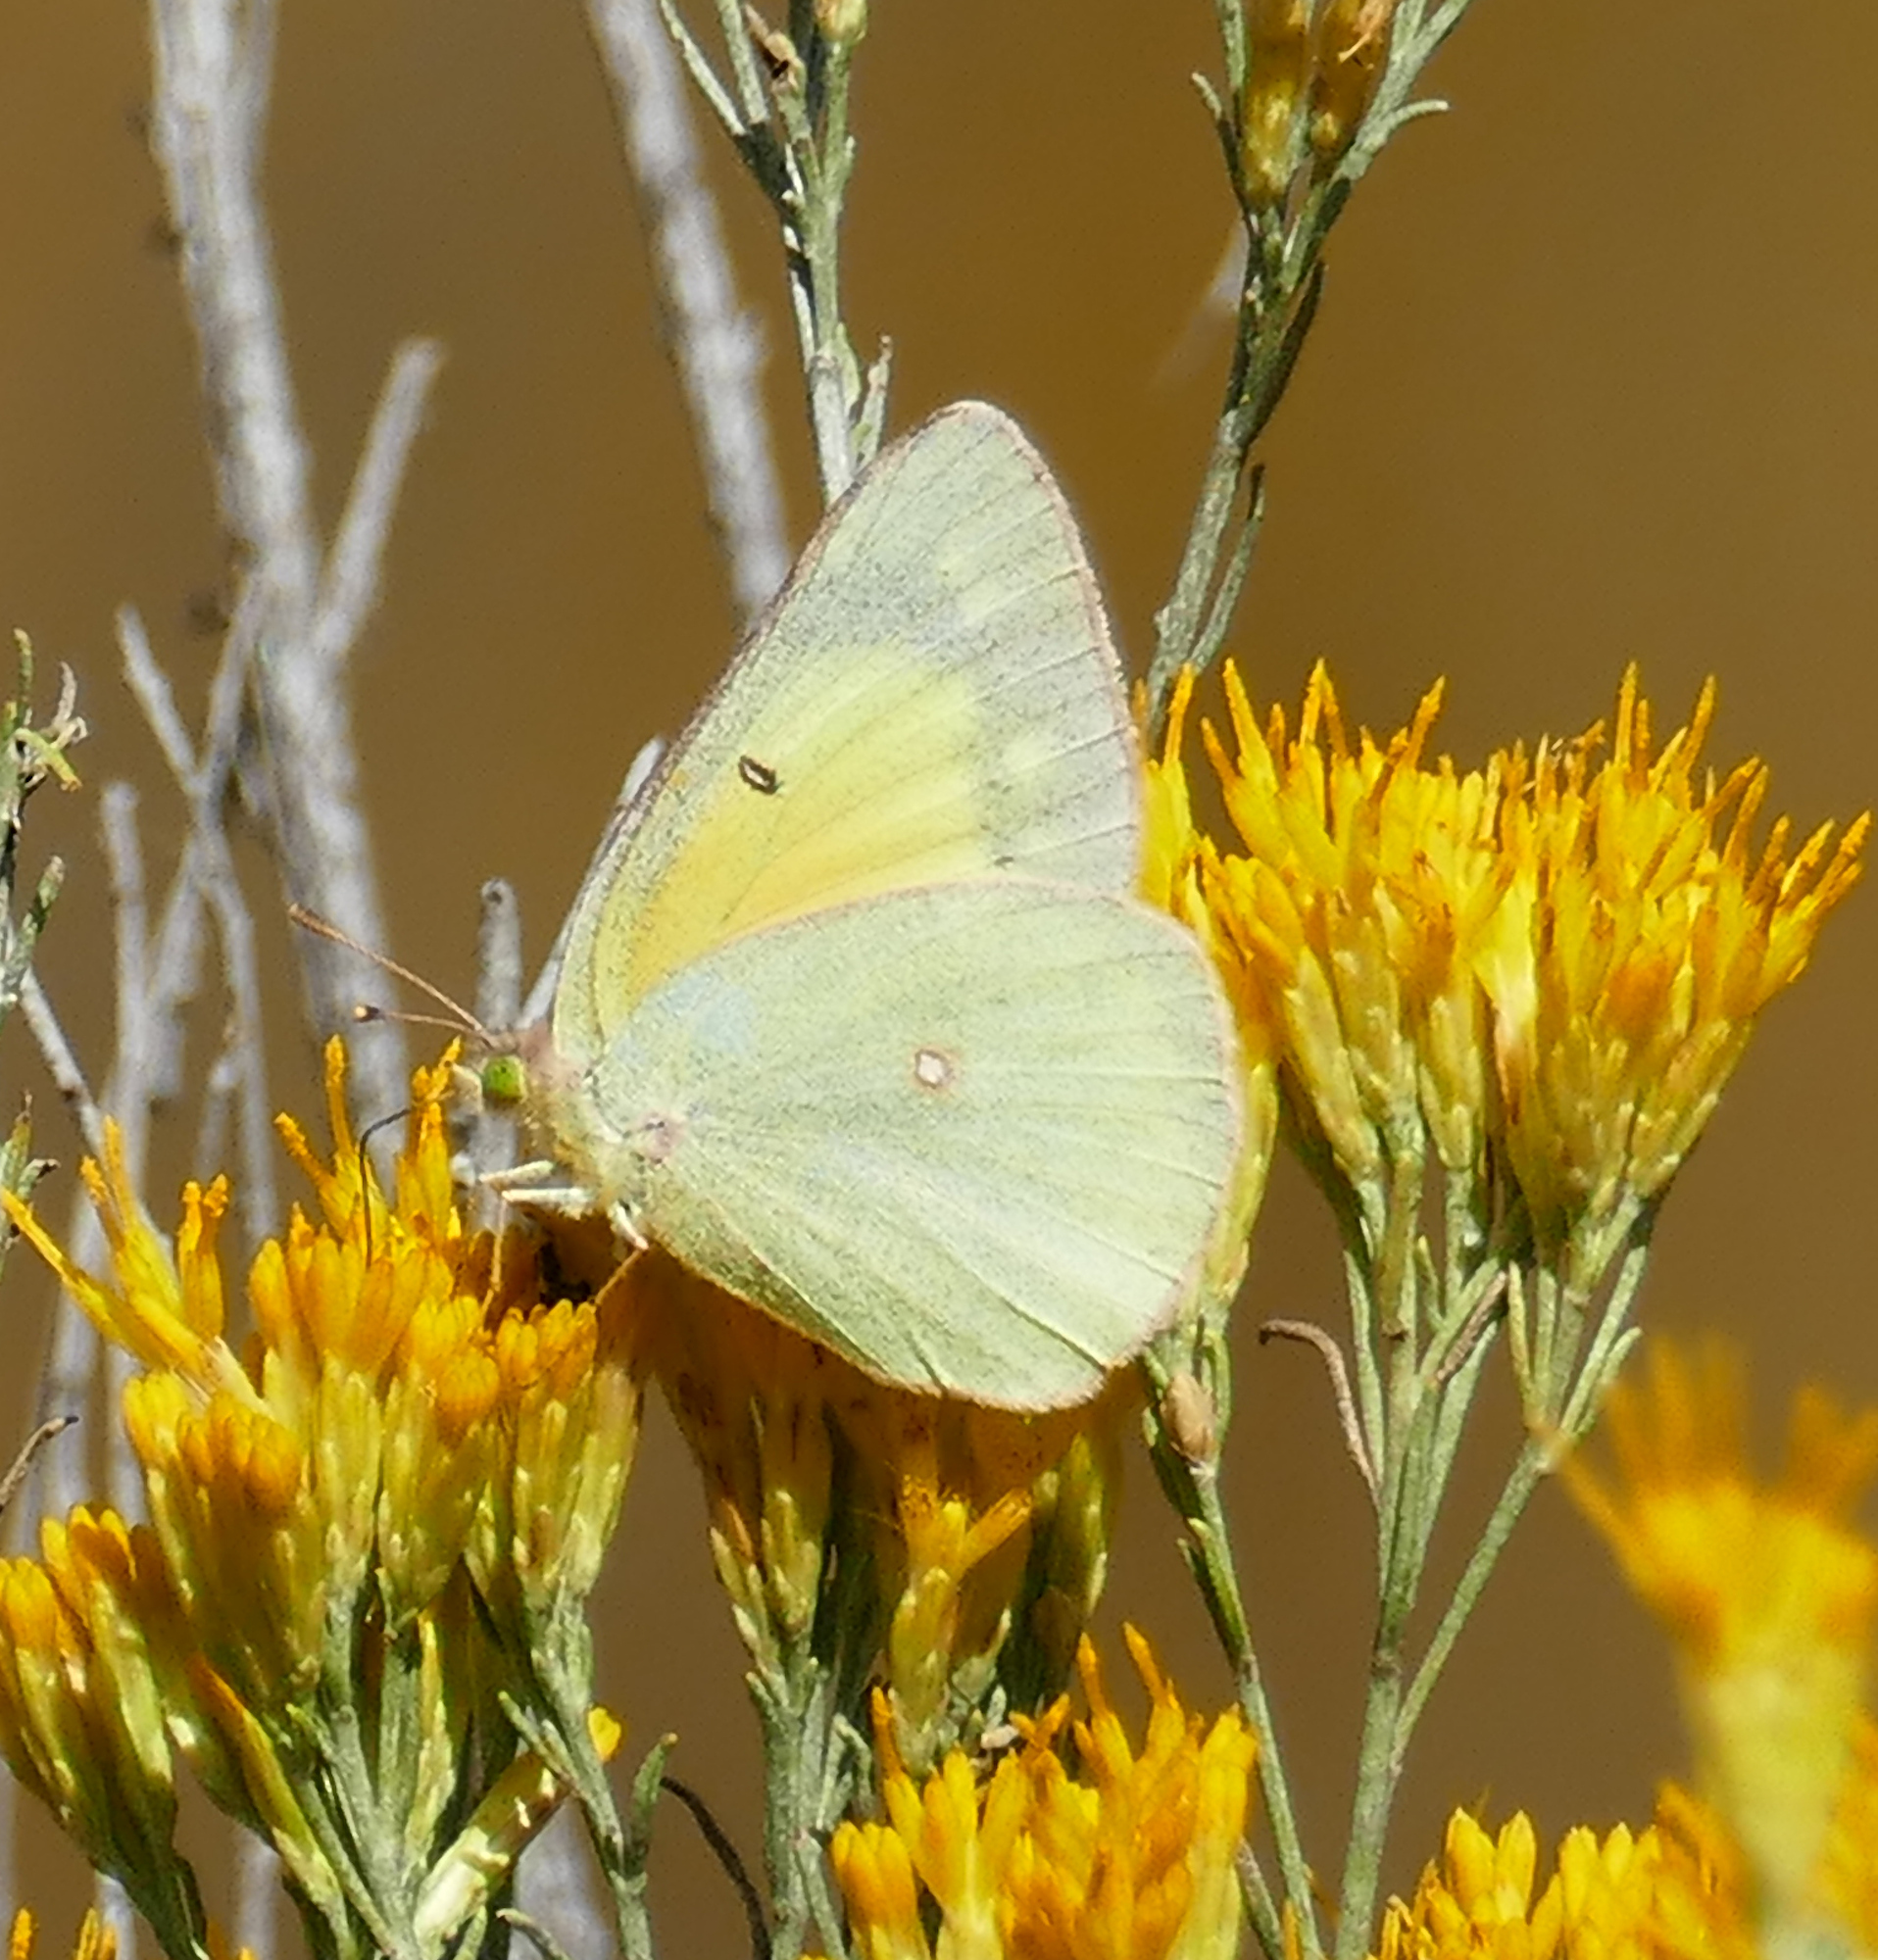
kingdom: Animalia
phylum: Arthropoda
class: Insecta
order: Lepidoptera
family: Pieridae
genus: Colias
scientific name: Colias eurytheme
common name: Alfalfa butterfly
